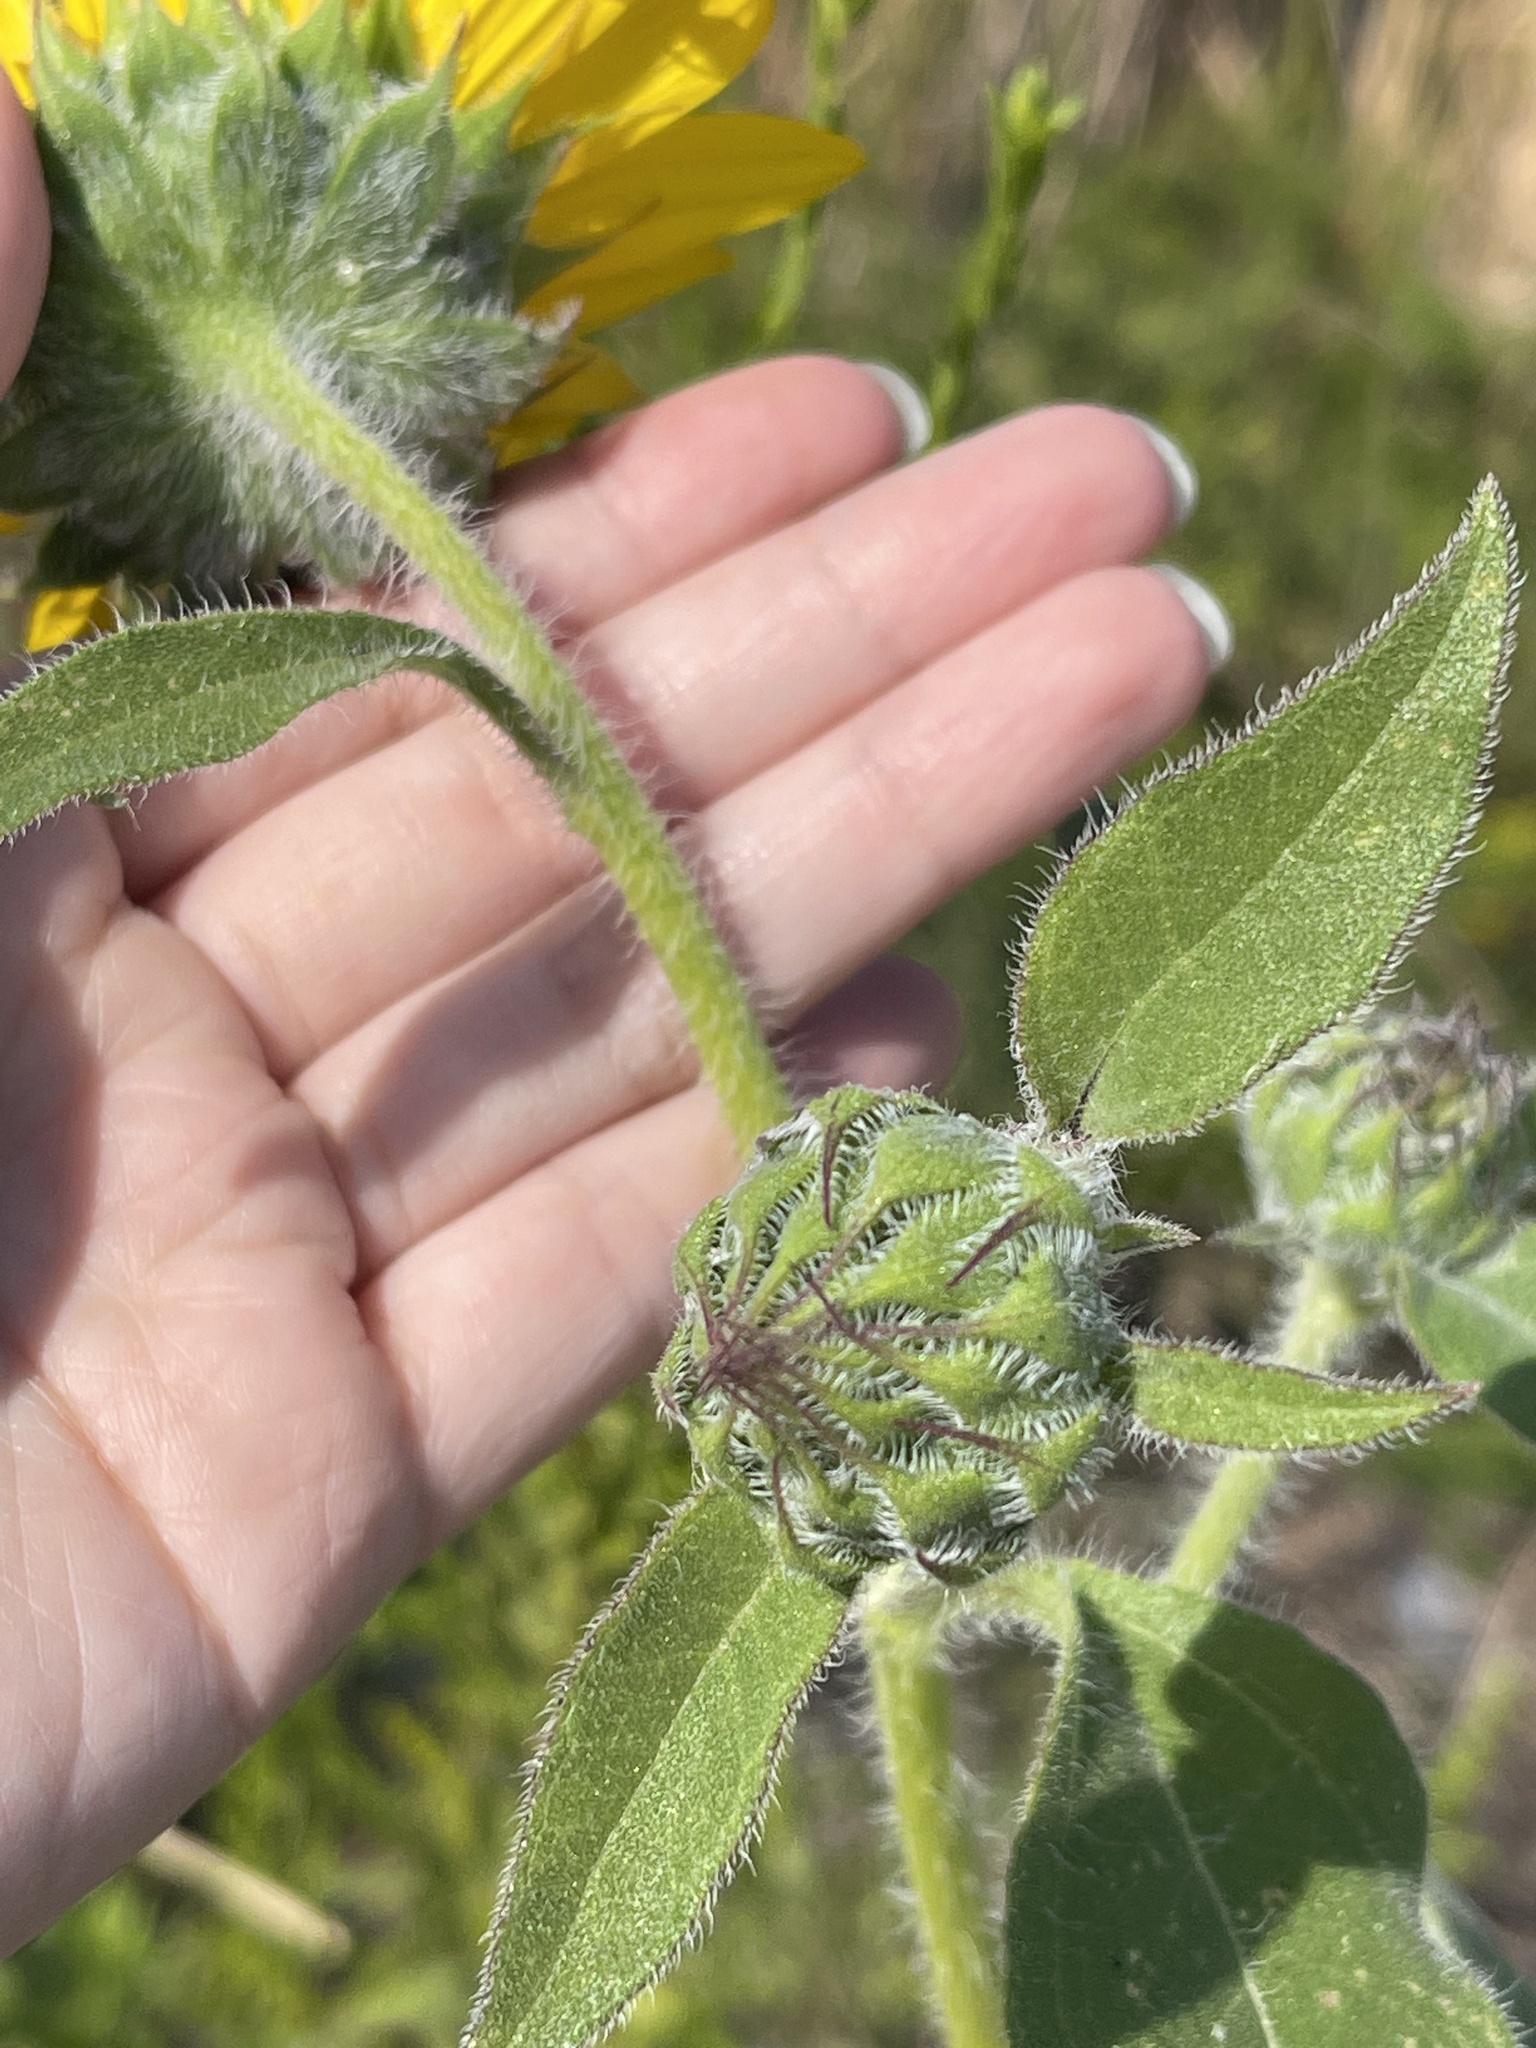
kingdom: Plantae
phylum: Tracheophyta
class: Magnoliopsida
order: Asterales
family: Asteraceae
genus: Helianthus
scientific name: Helianthus annuus
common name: Sunflower
